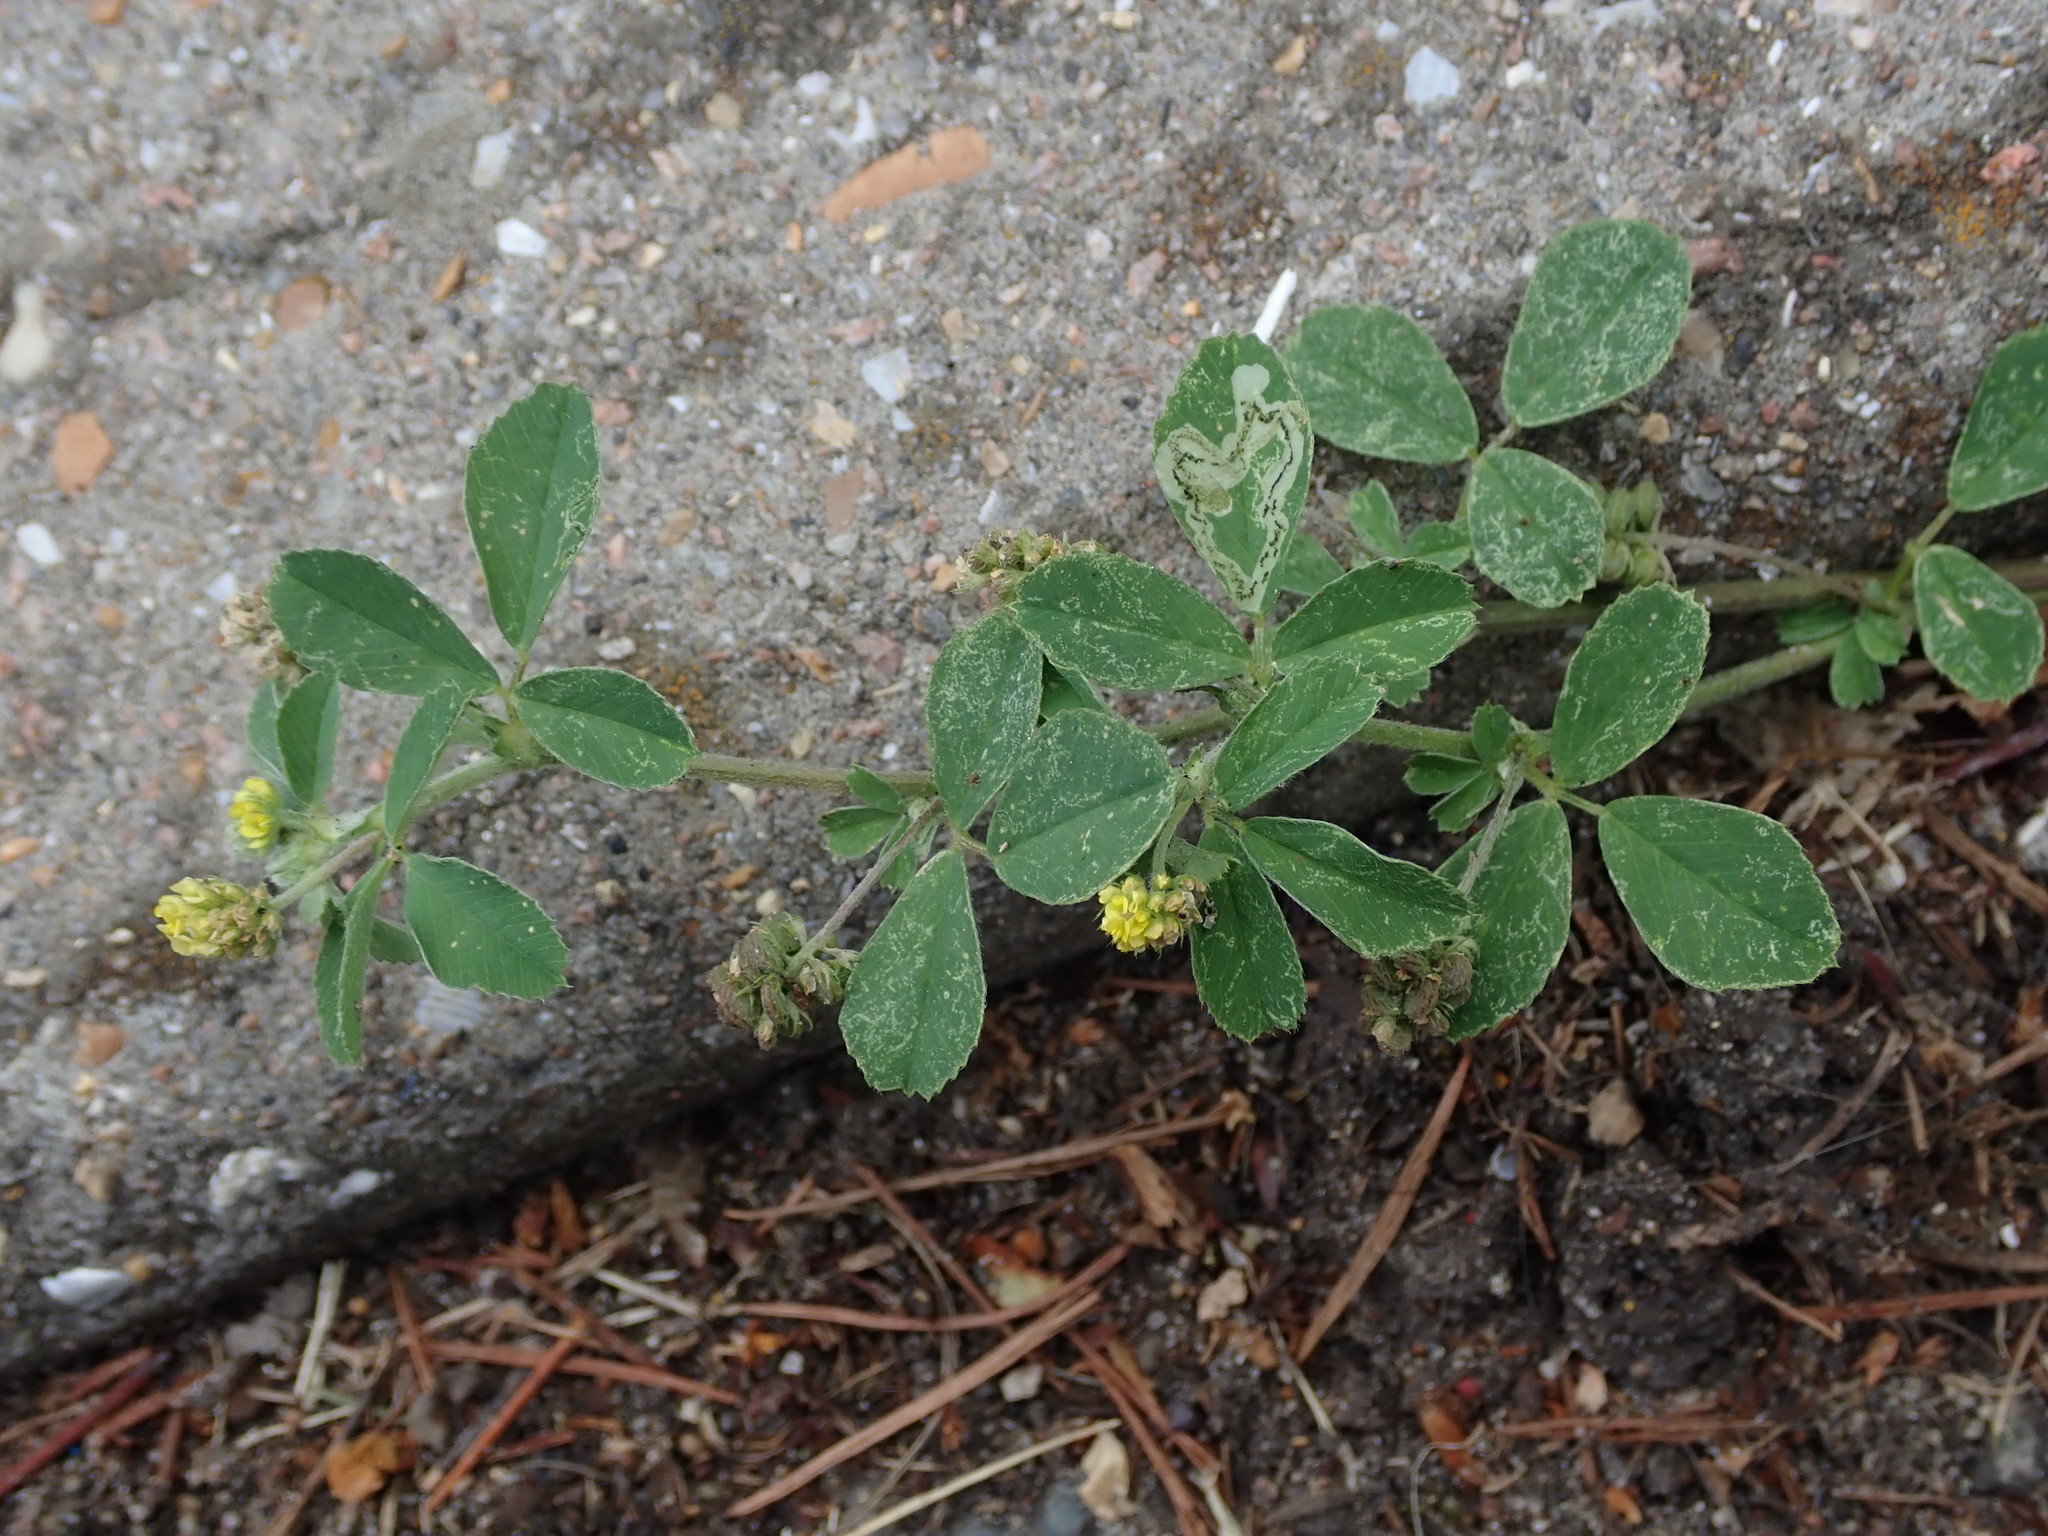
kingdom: Plantae
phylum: Tracheophyta
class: Magnoliopsida
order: Fabales
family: Fabaceae
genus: Medicago
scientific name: Medicago lupulina
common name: Black medick
